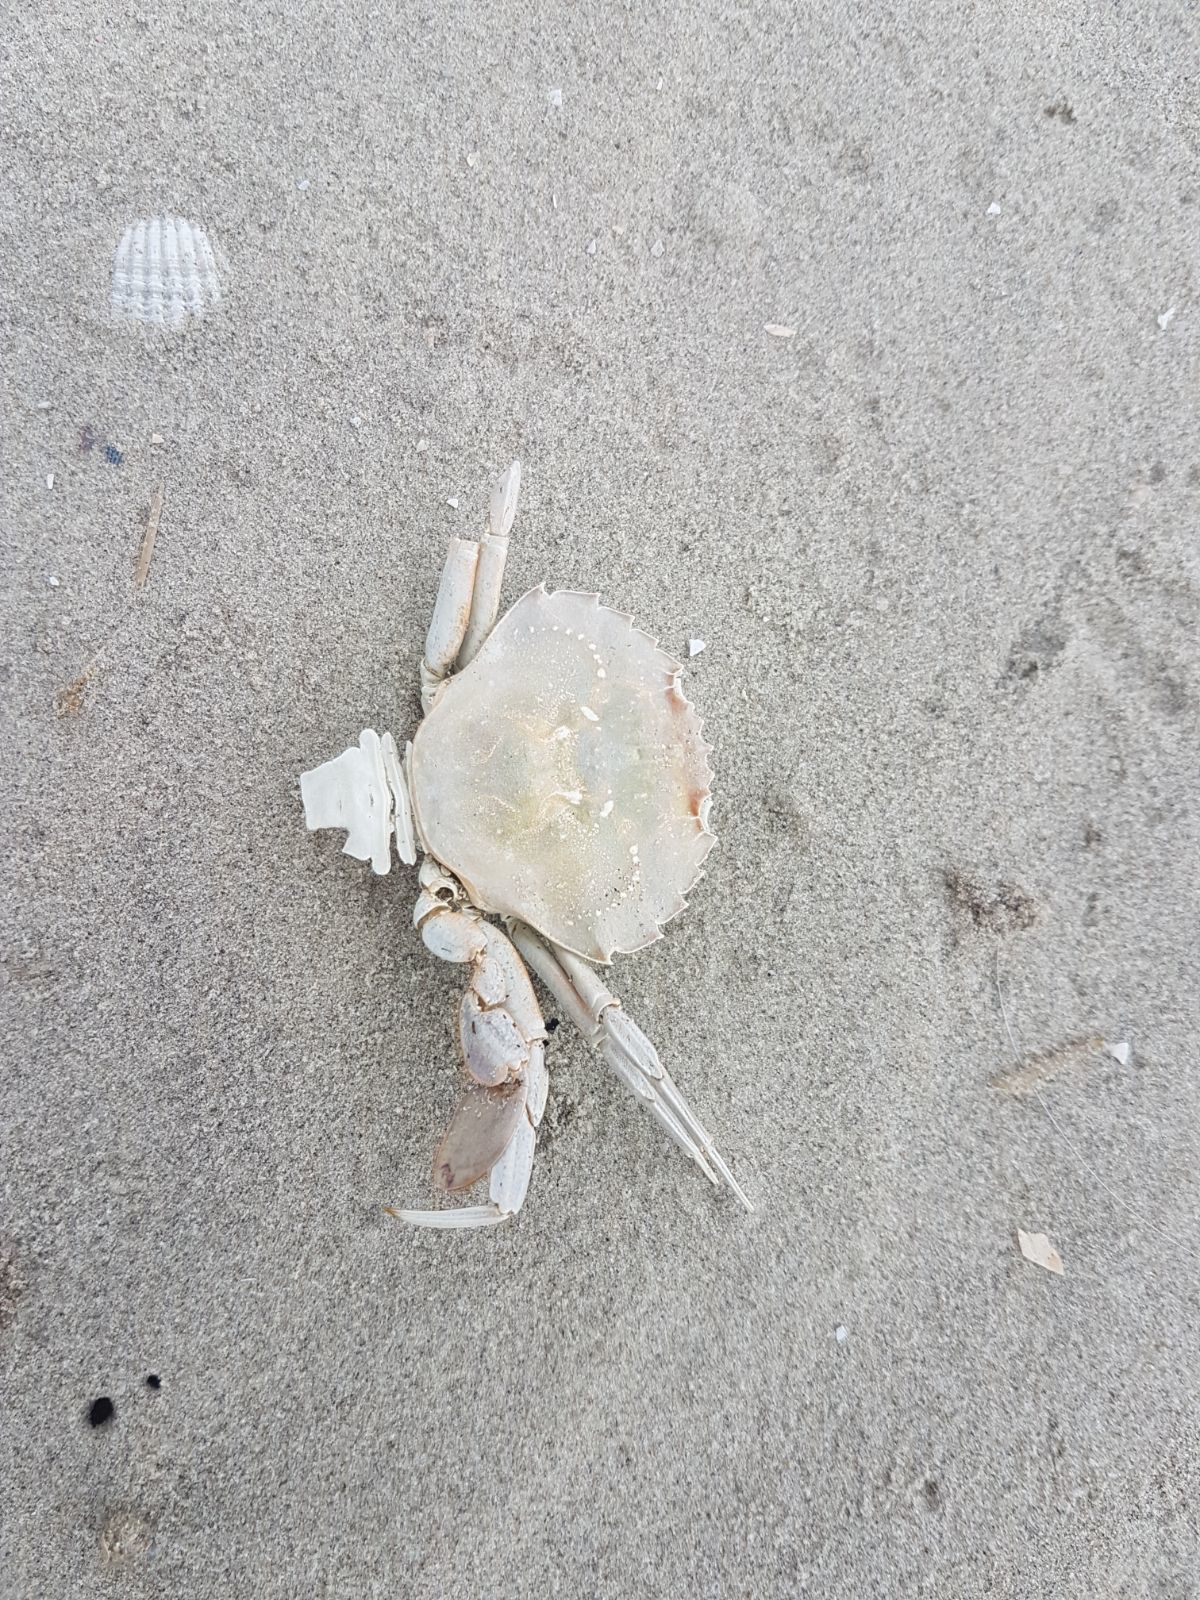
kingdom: Animalia
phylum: Arthropoda
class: Malacostraca
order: Decapoda
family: Polybiidae
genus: Liocarcinus
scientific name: Liocarcinus holsatus
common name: Flying crab
